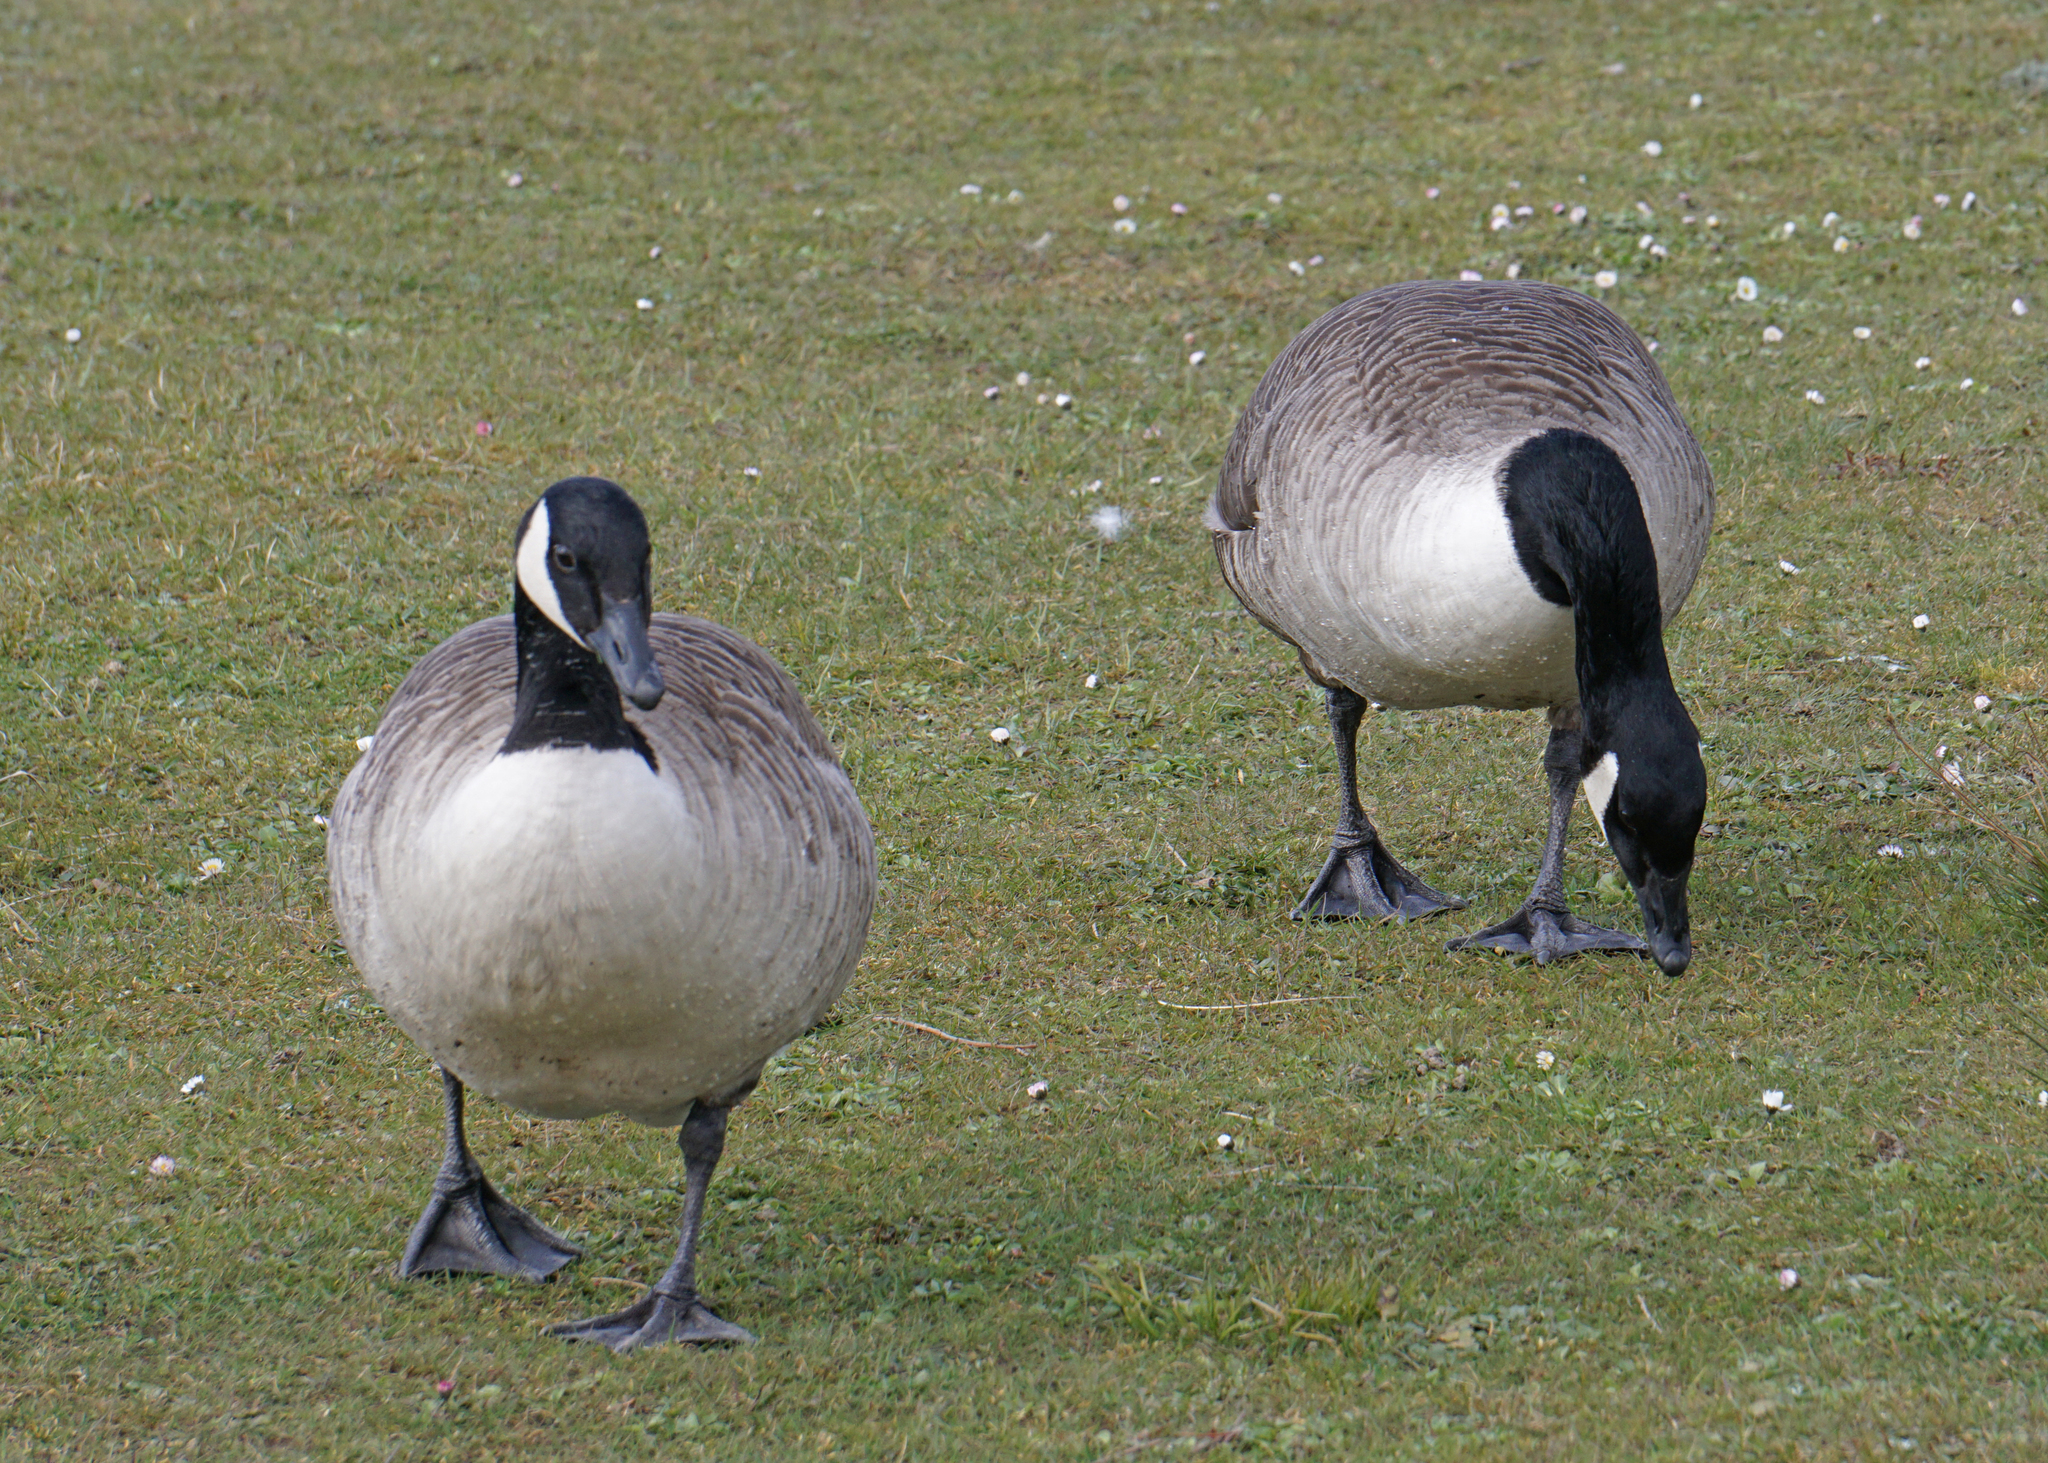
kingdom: Animalia
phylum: Chordata
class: Aves
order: Anseriformes
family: Anatidae
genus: Branta
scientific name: Branta canadensis
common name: Canada goose
